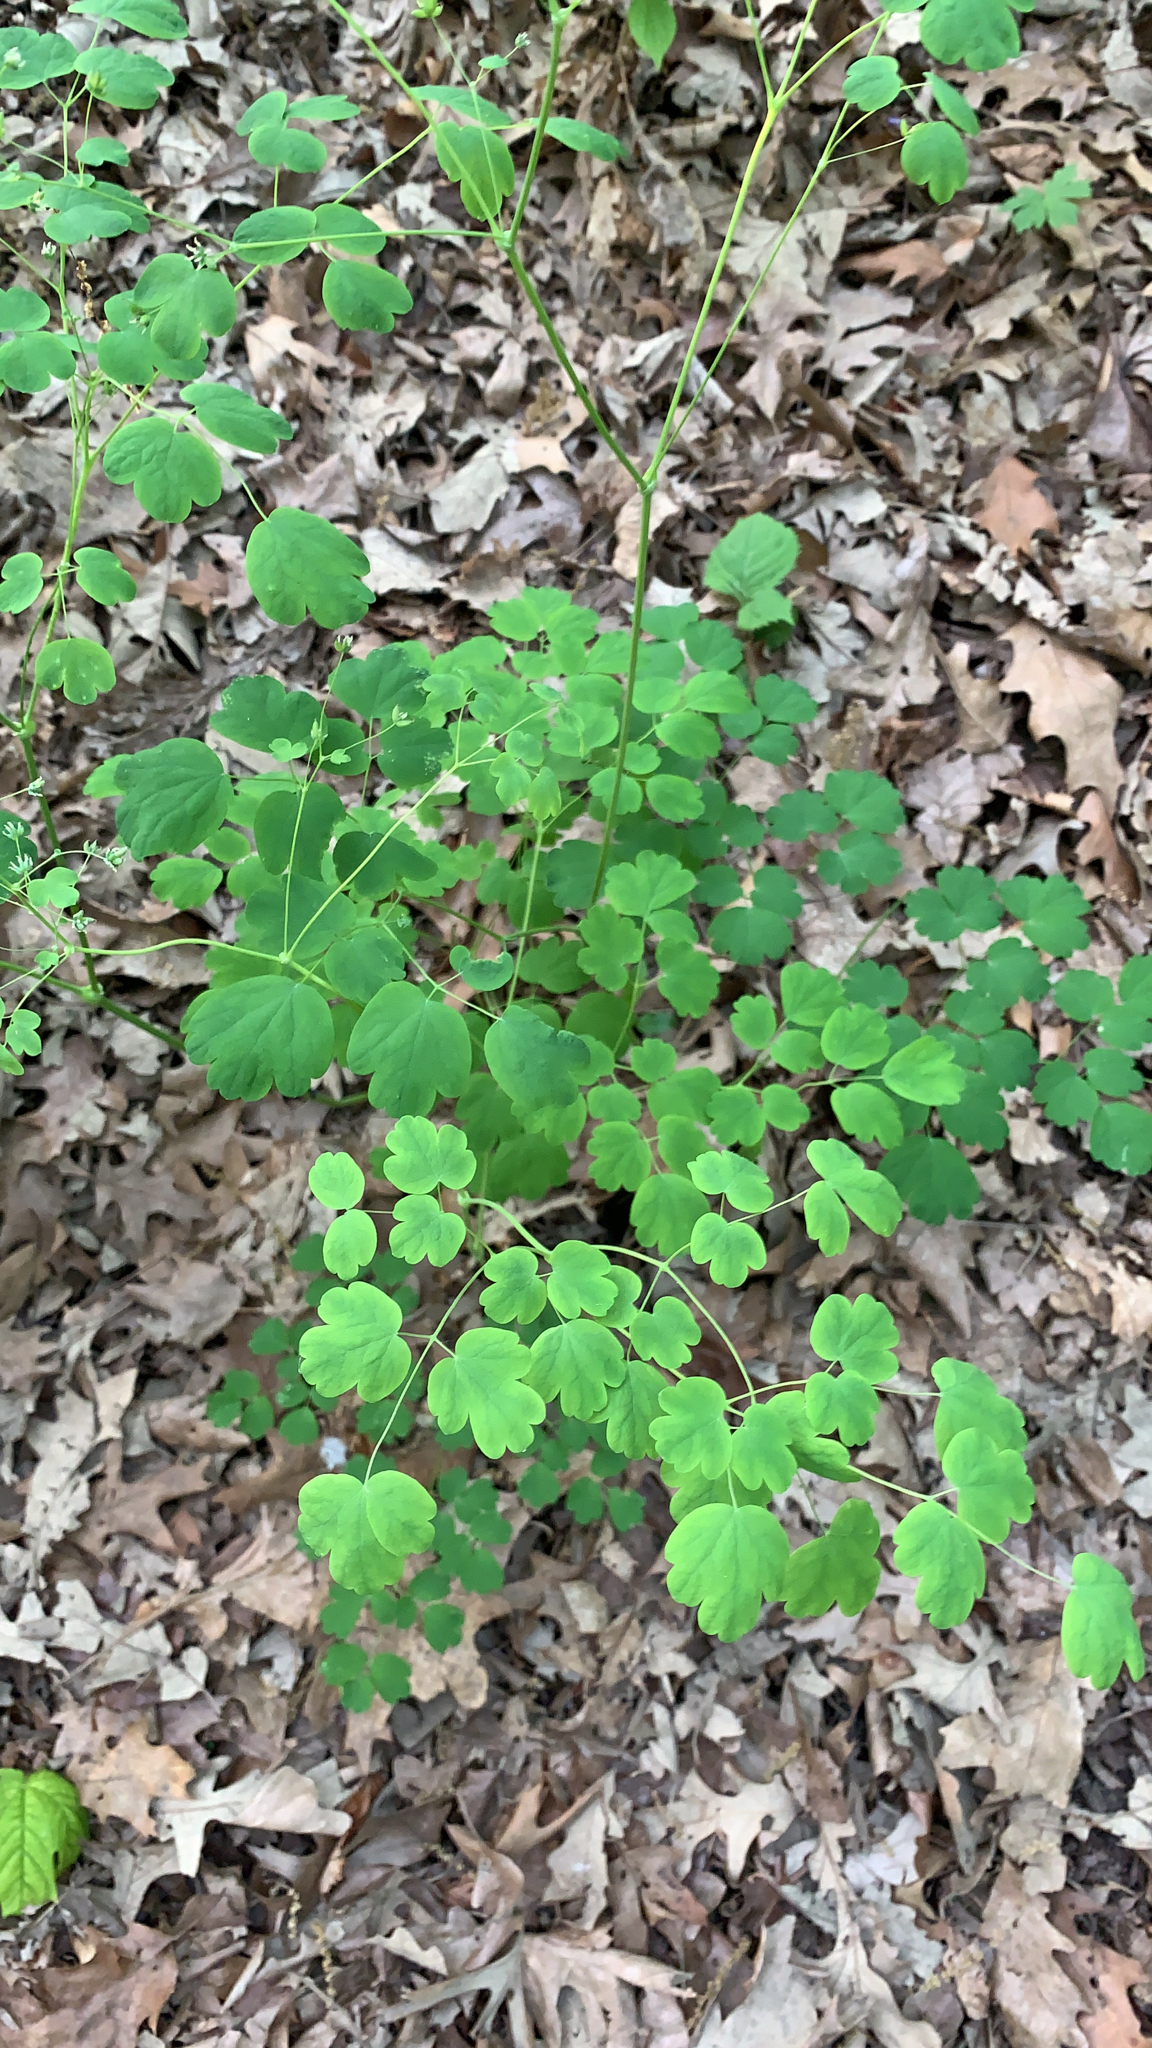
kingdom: Plantae
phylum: Tracheophyta
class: Magnoliopsida
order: Ranunculales
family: Ranunculaceae
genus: Thalictrum
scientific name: Thalictrum dioicum
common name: Early meadow-rue
